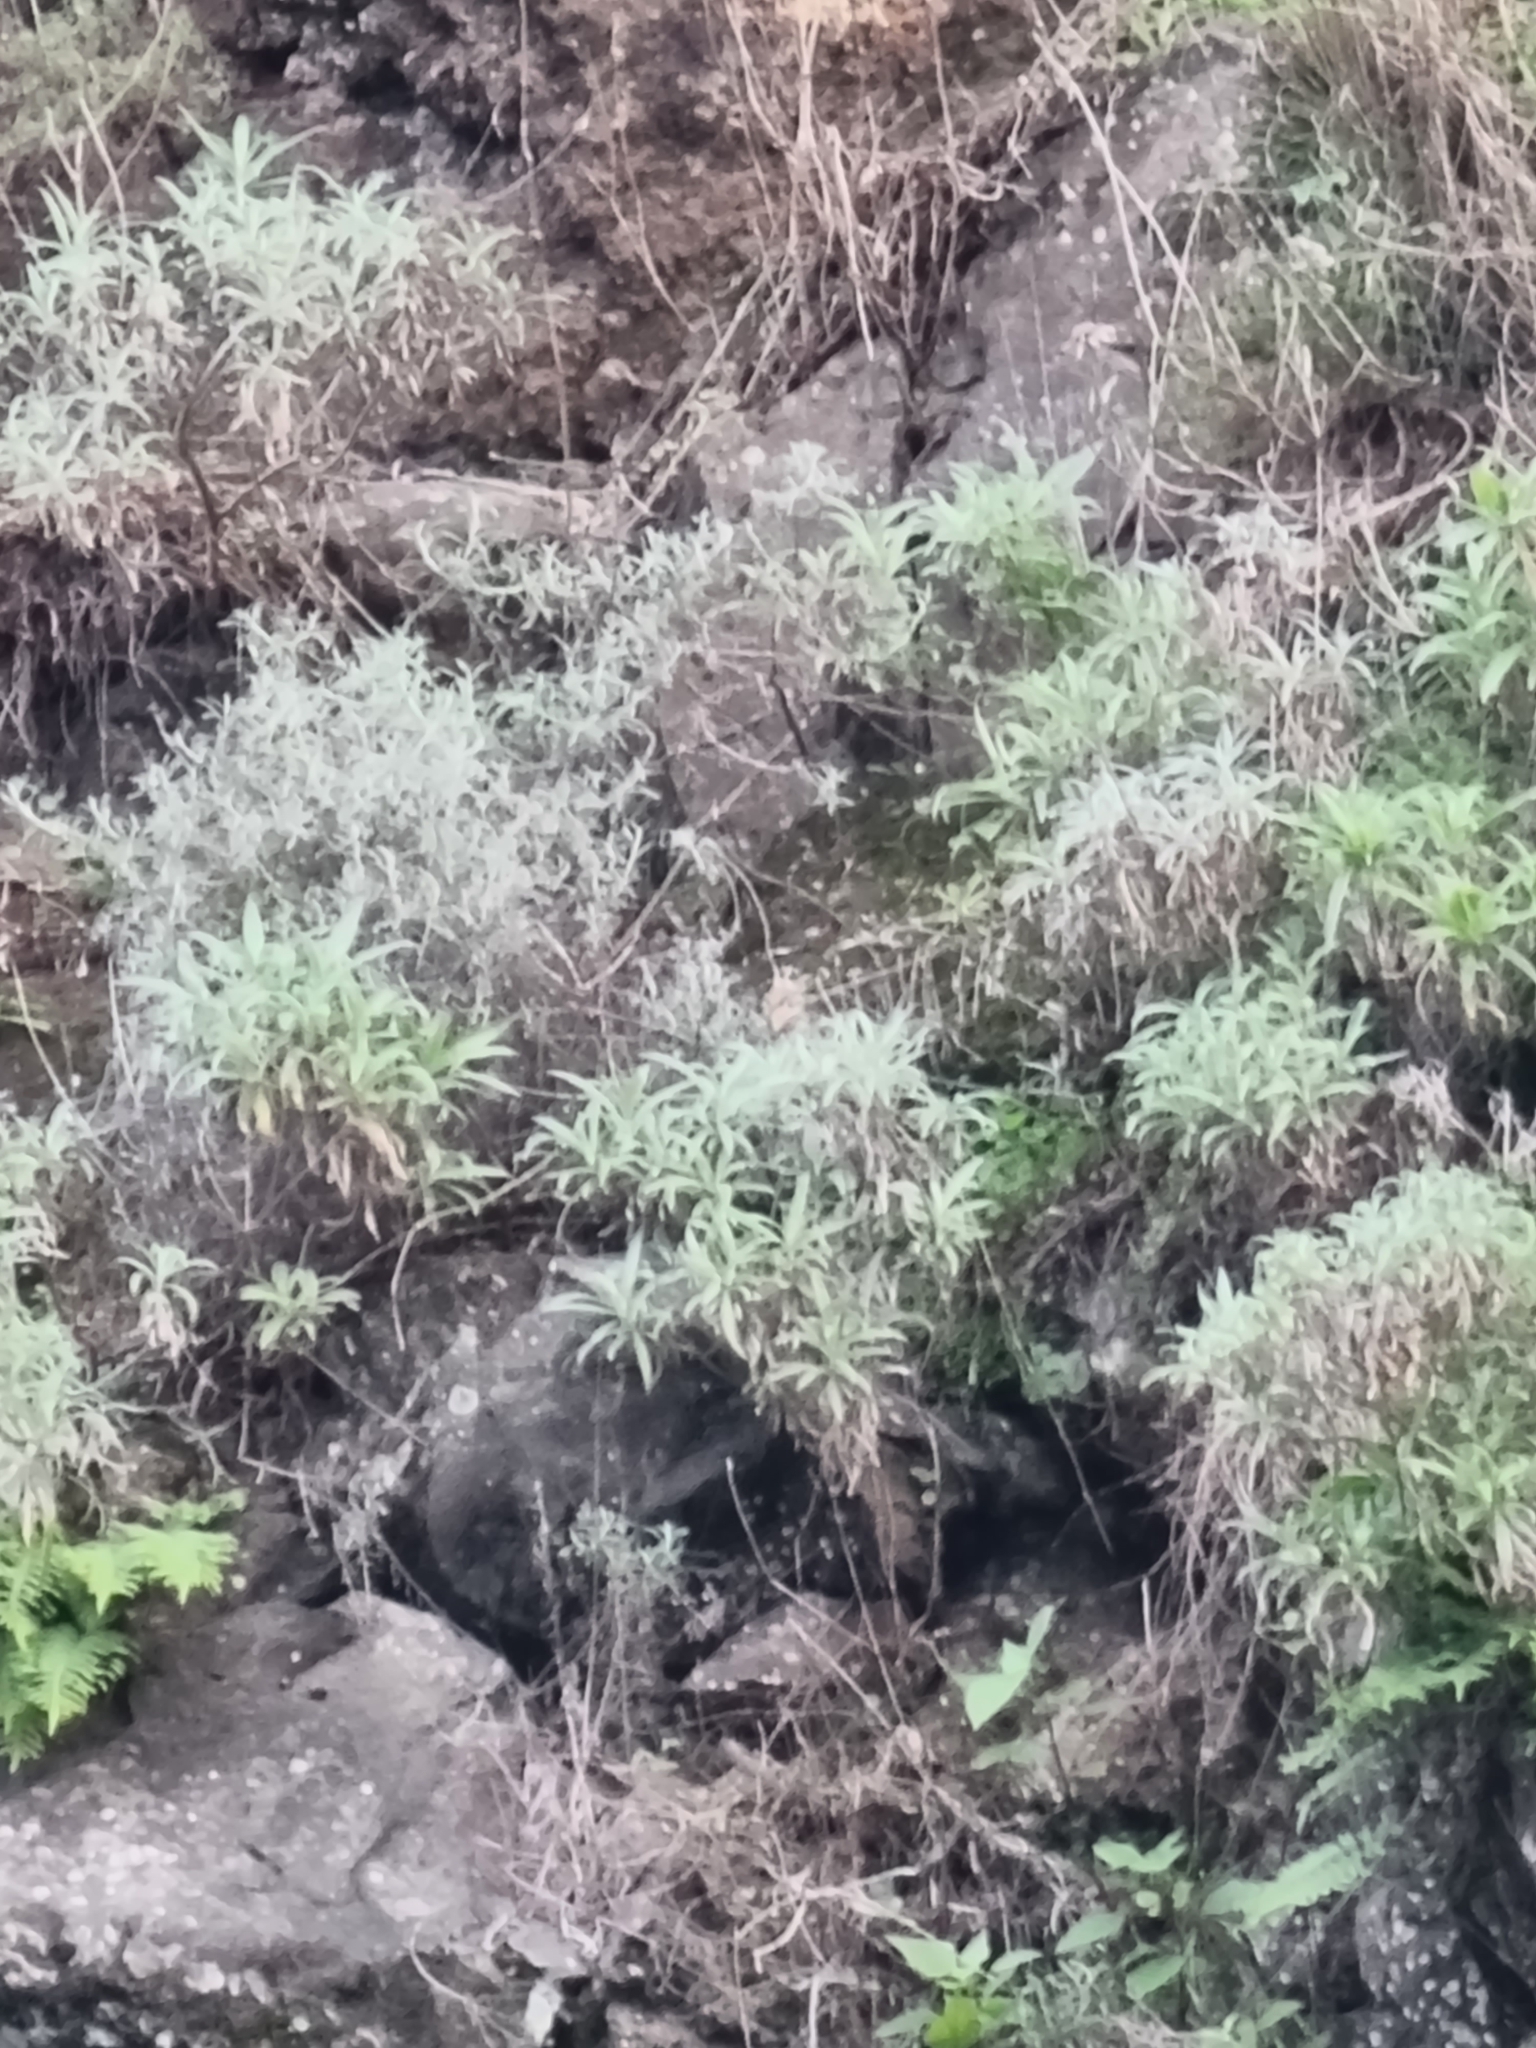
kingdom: Plantae
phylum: Tracheophyta
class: Magnoliopsida
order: Asterales
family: Asteraceae
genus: Carlina
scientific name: Carlina salicifolia
